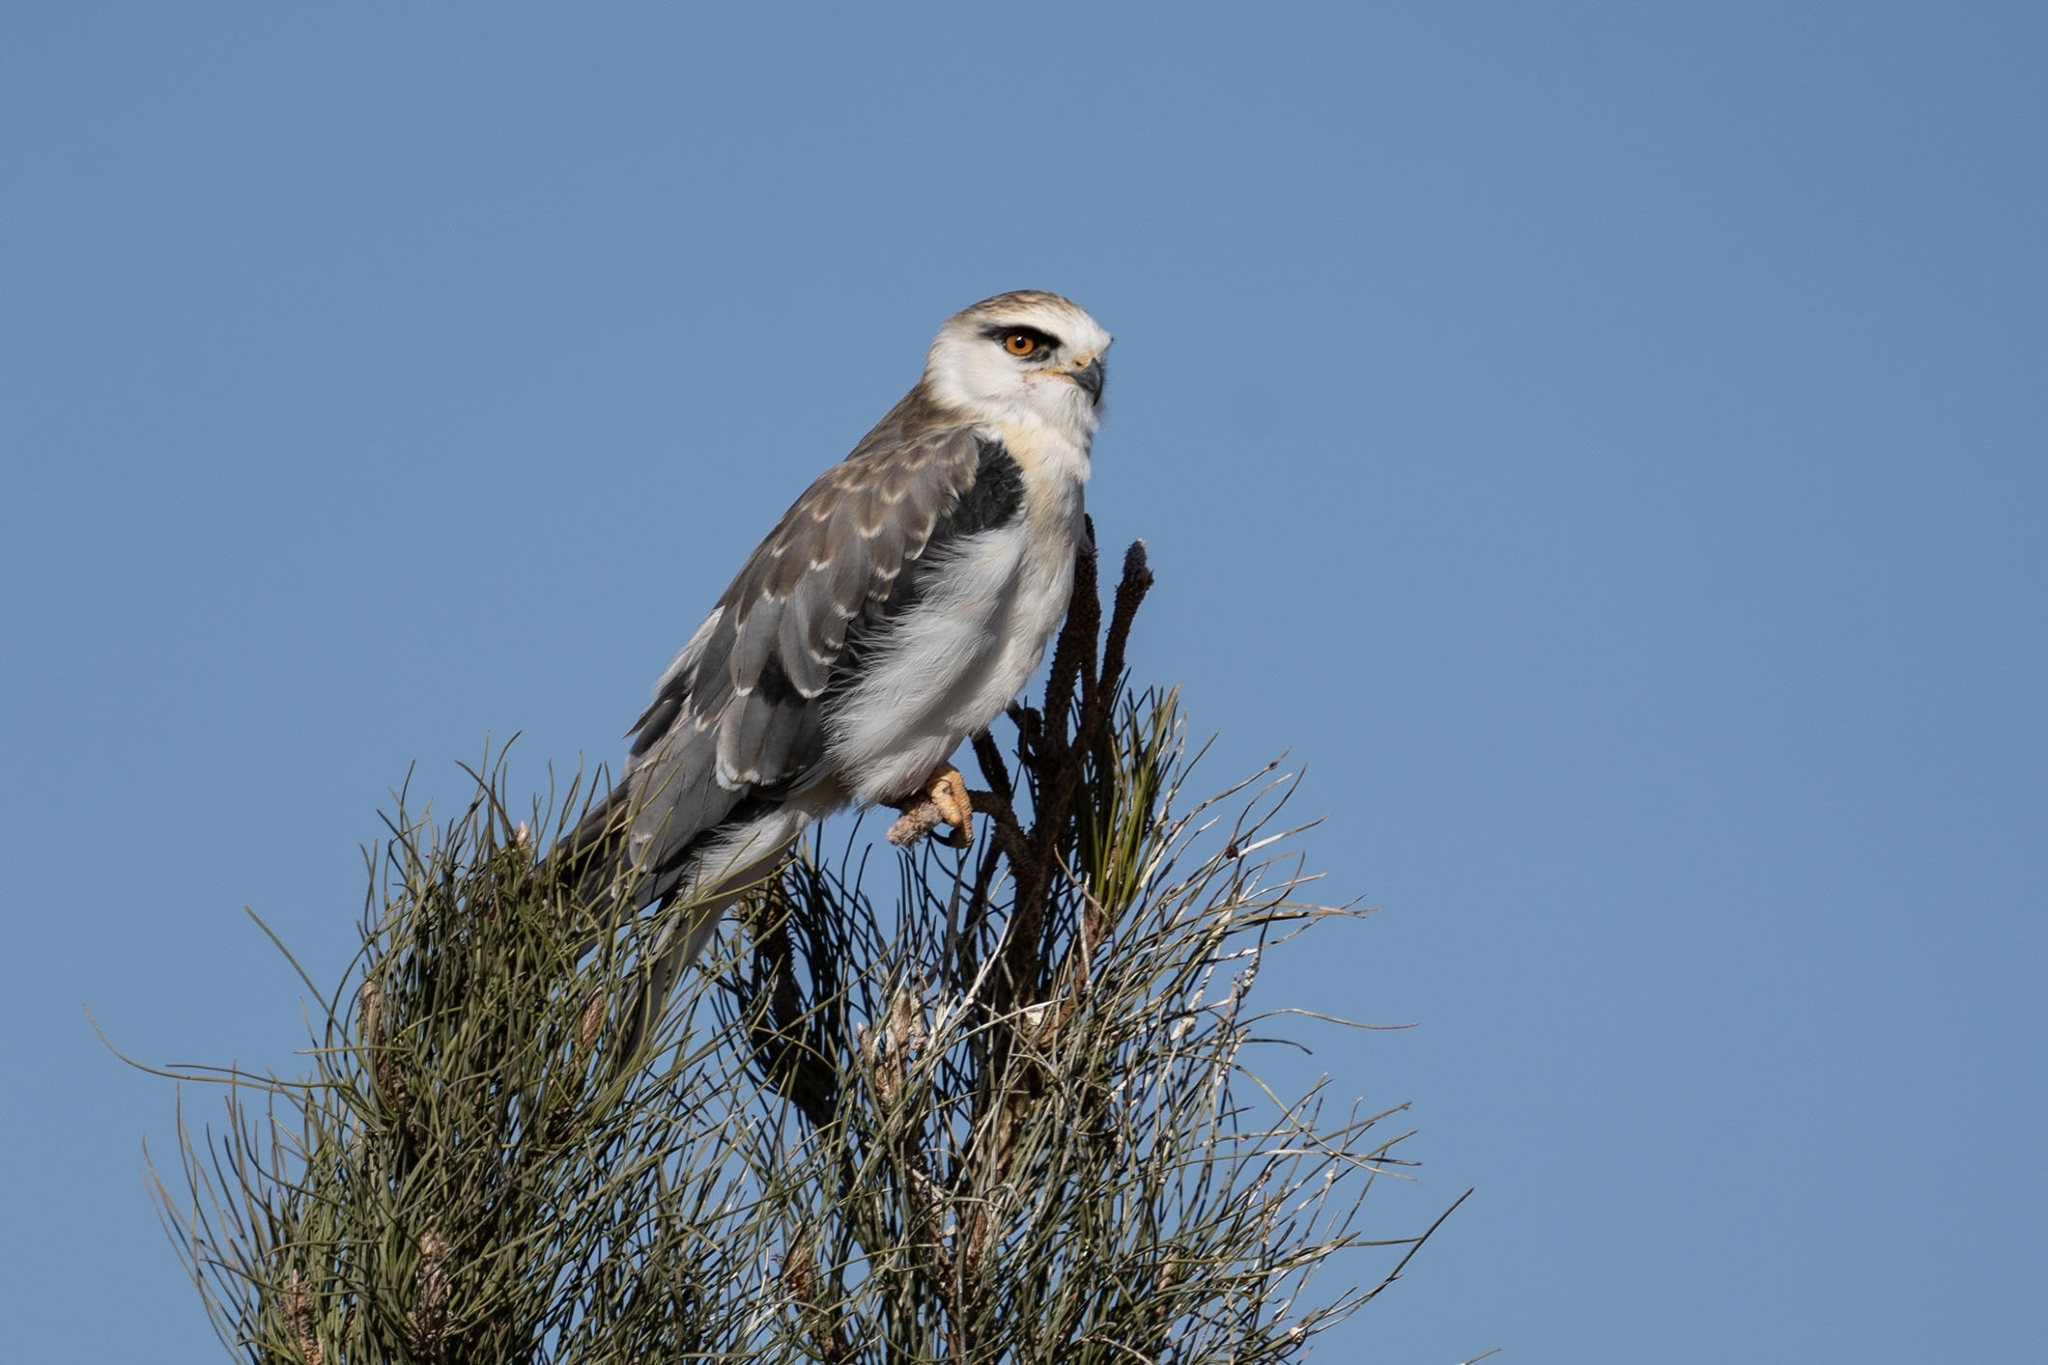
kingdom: Animalia
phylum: Chordata
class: Aves
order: Accipitriformes
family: Accipitridae
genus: Elanus
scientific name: Elanus caeruleus
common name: Black-winged kite
